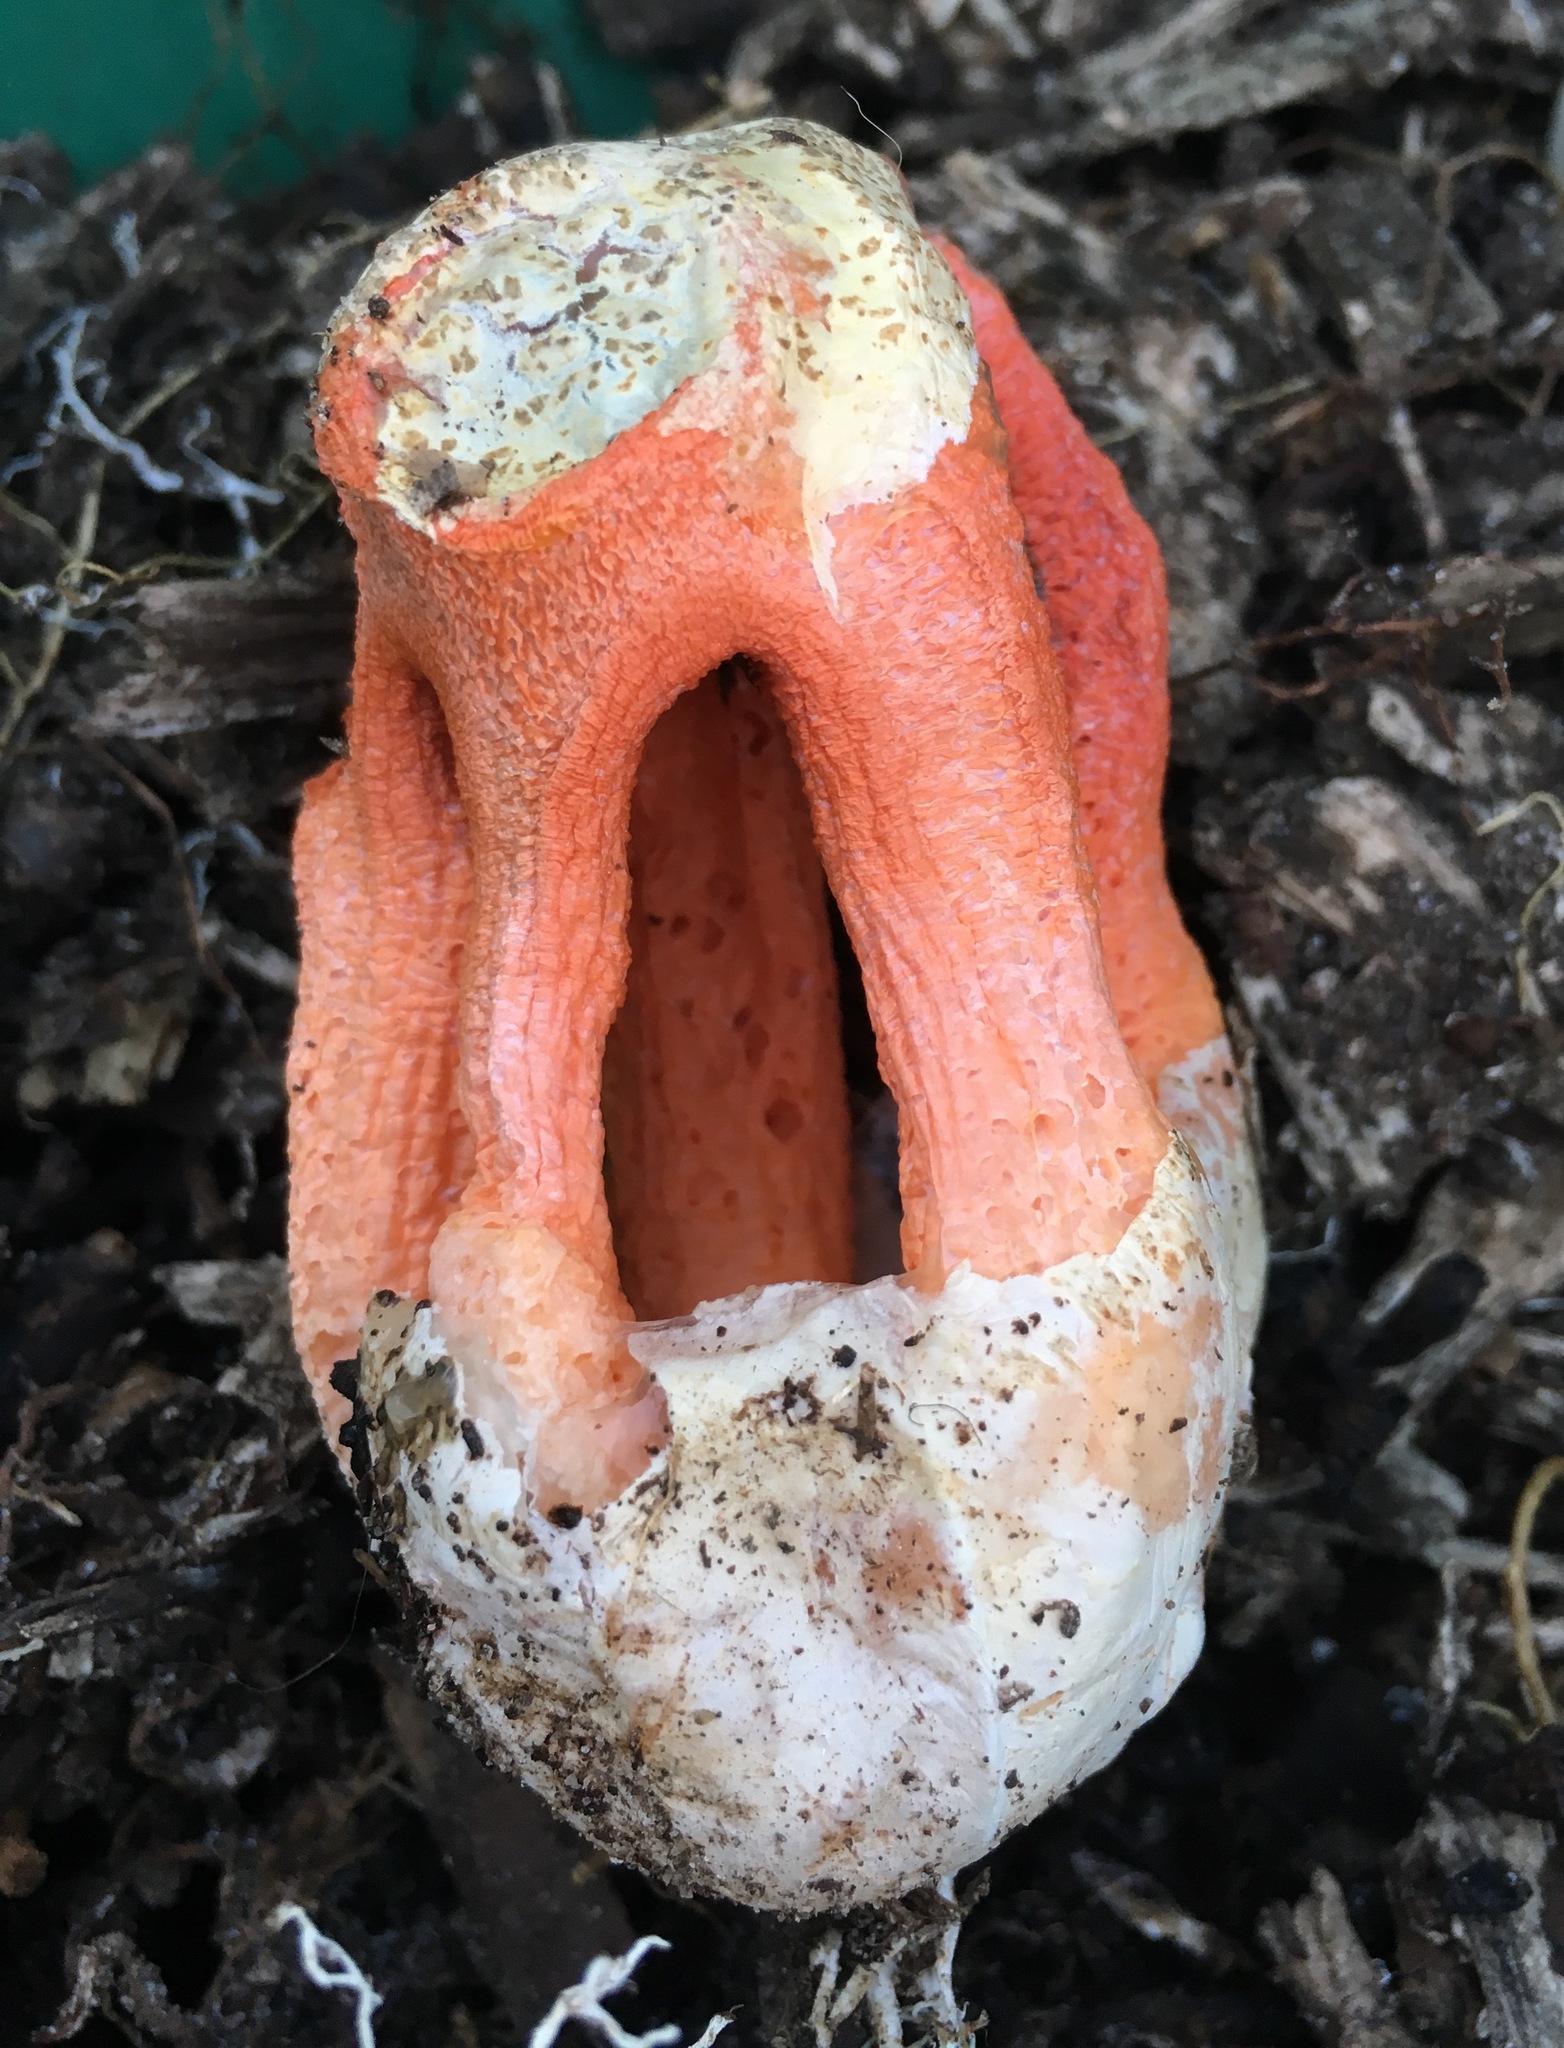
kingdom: Fungi
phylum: Basidiomycota
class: Agaricomycetes
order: Phallales
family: Phallaceae
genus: Clathrus
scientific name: Clathrus columnatus
